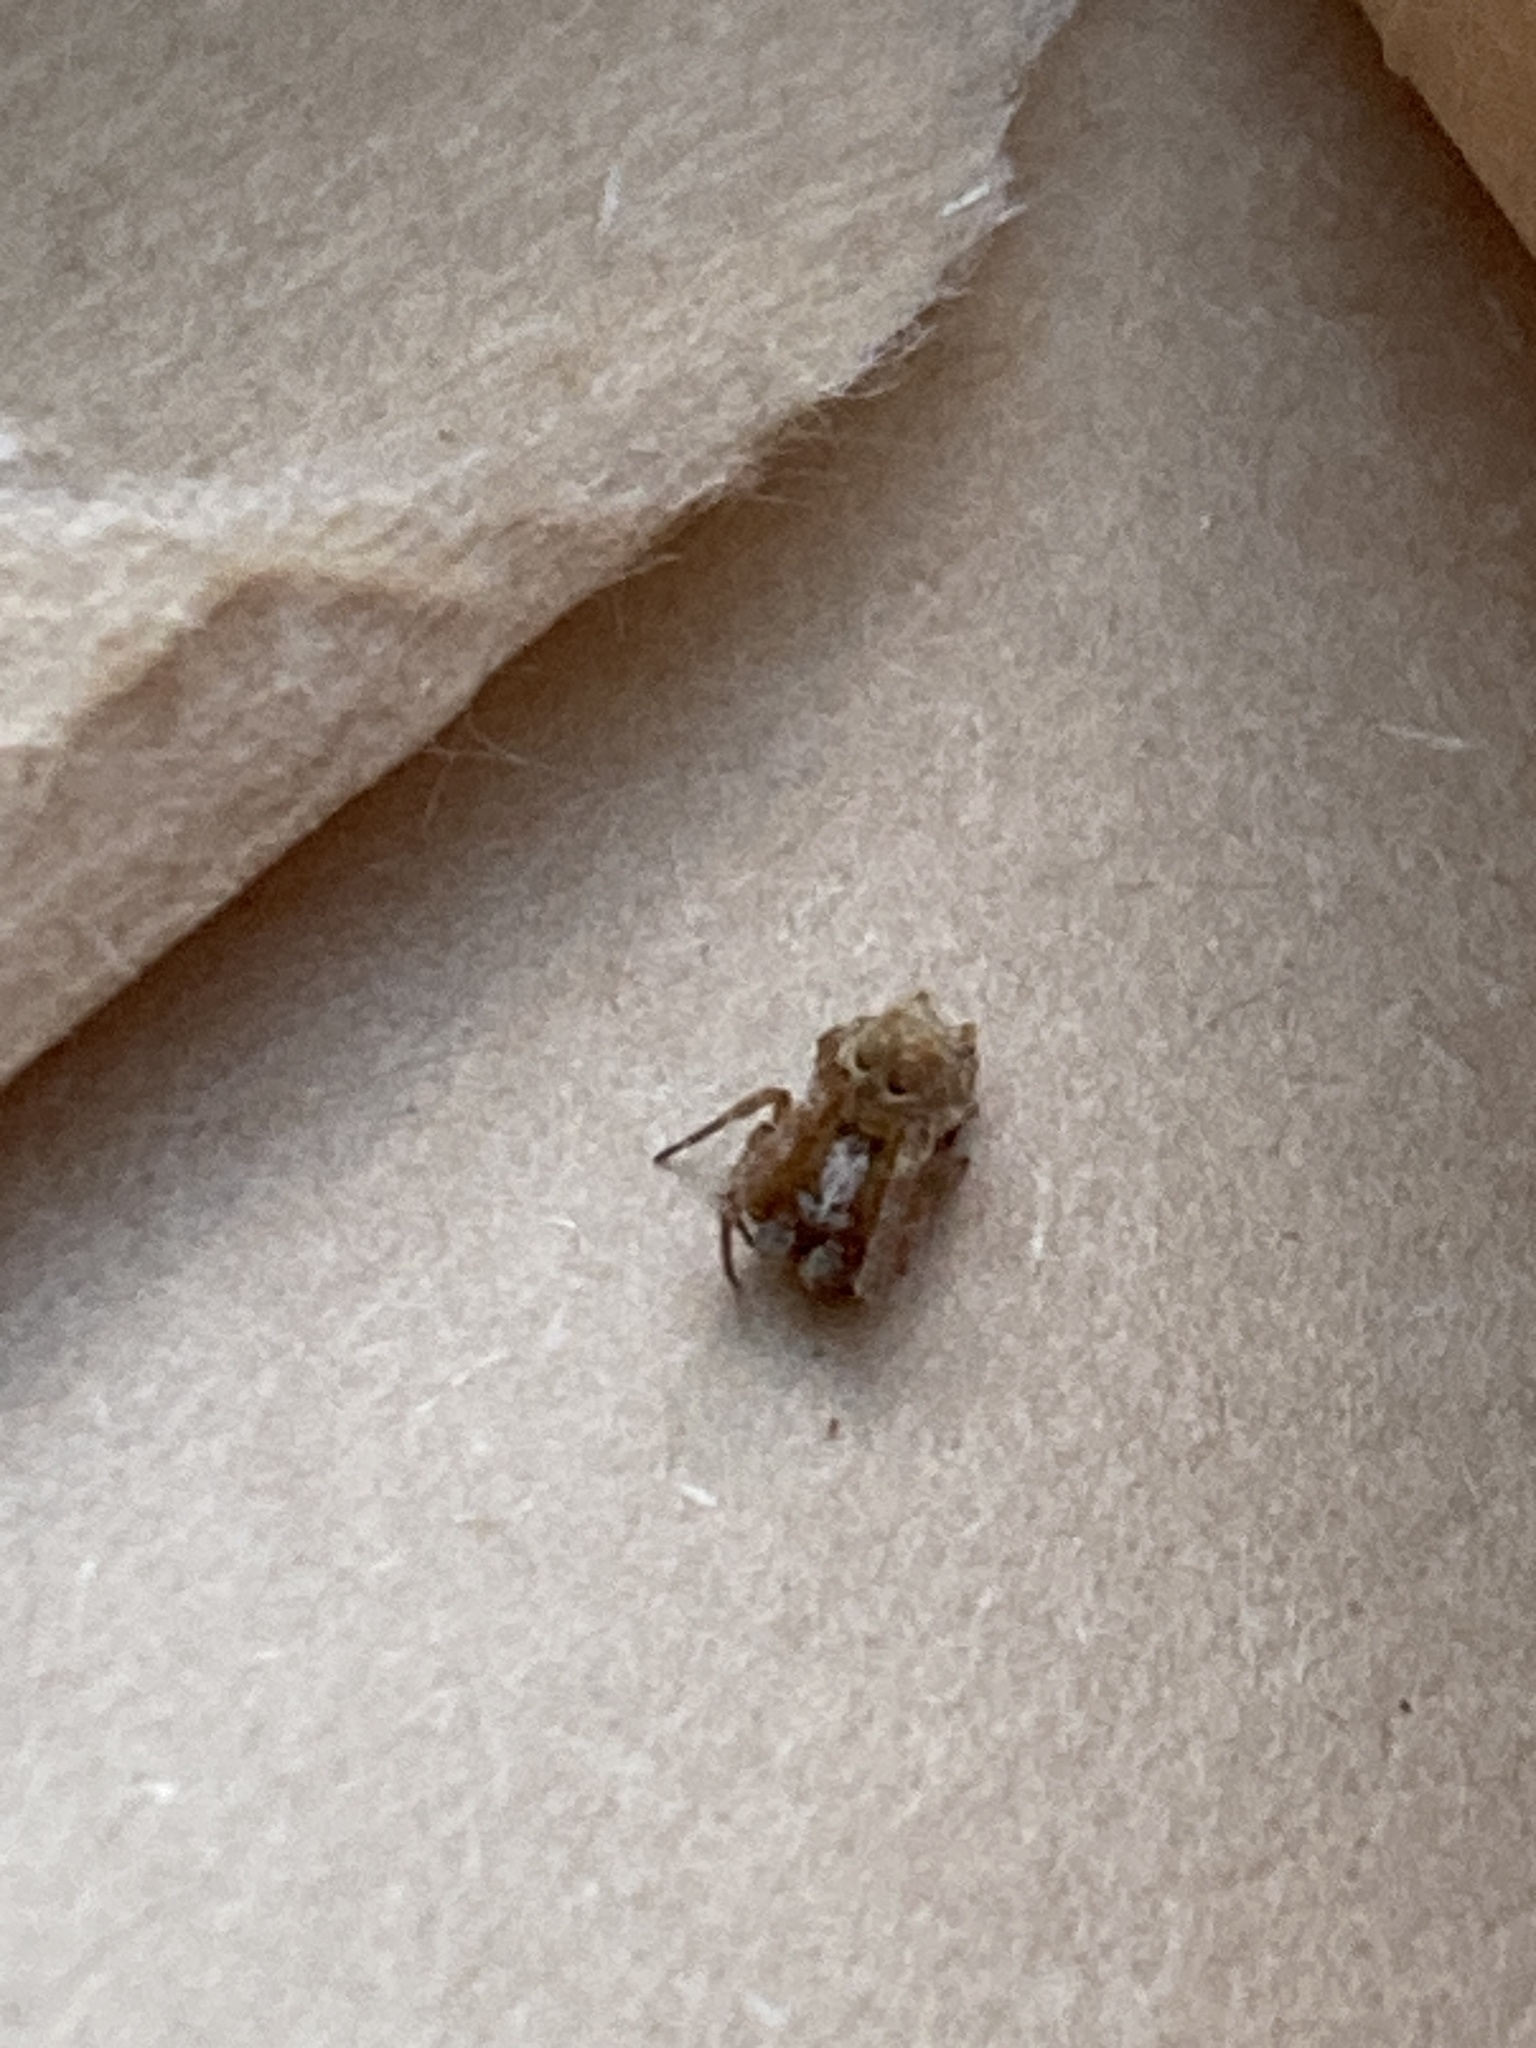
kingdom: Animalia
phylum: Arthropoda
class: Arachnida
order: Araneae
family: Uloboridae
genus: Philoponella
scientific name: Philoponella congregabilis
